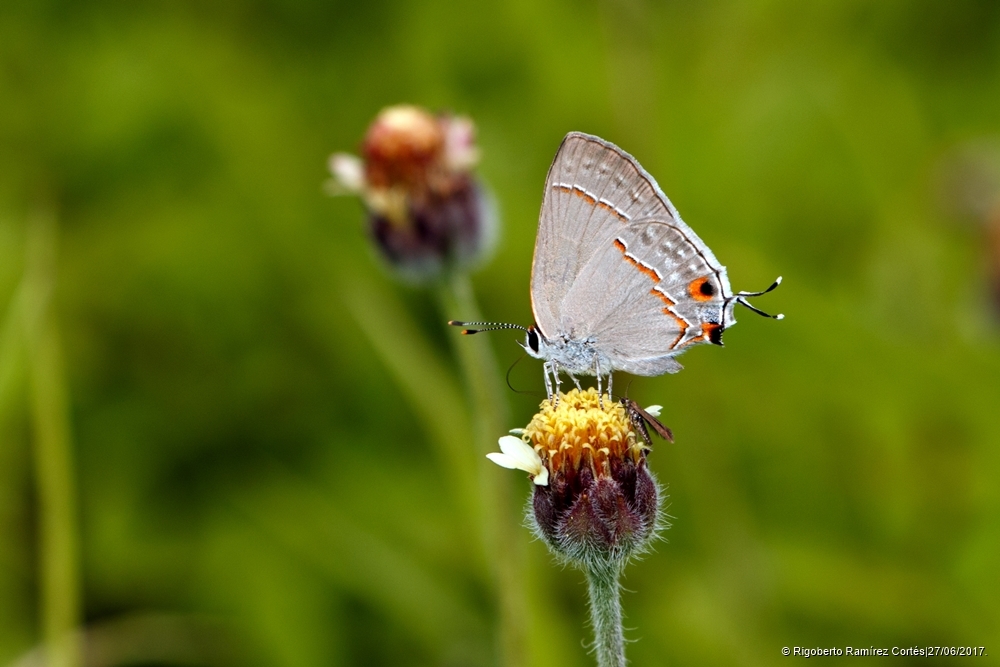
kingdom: Animalia
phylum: Arthropoda
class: Insecta
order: Lepidoptera
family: Lycaenidae
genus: Thecla
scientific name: Thecla bebrycia
